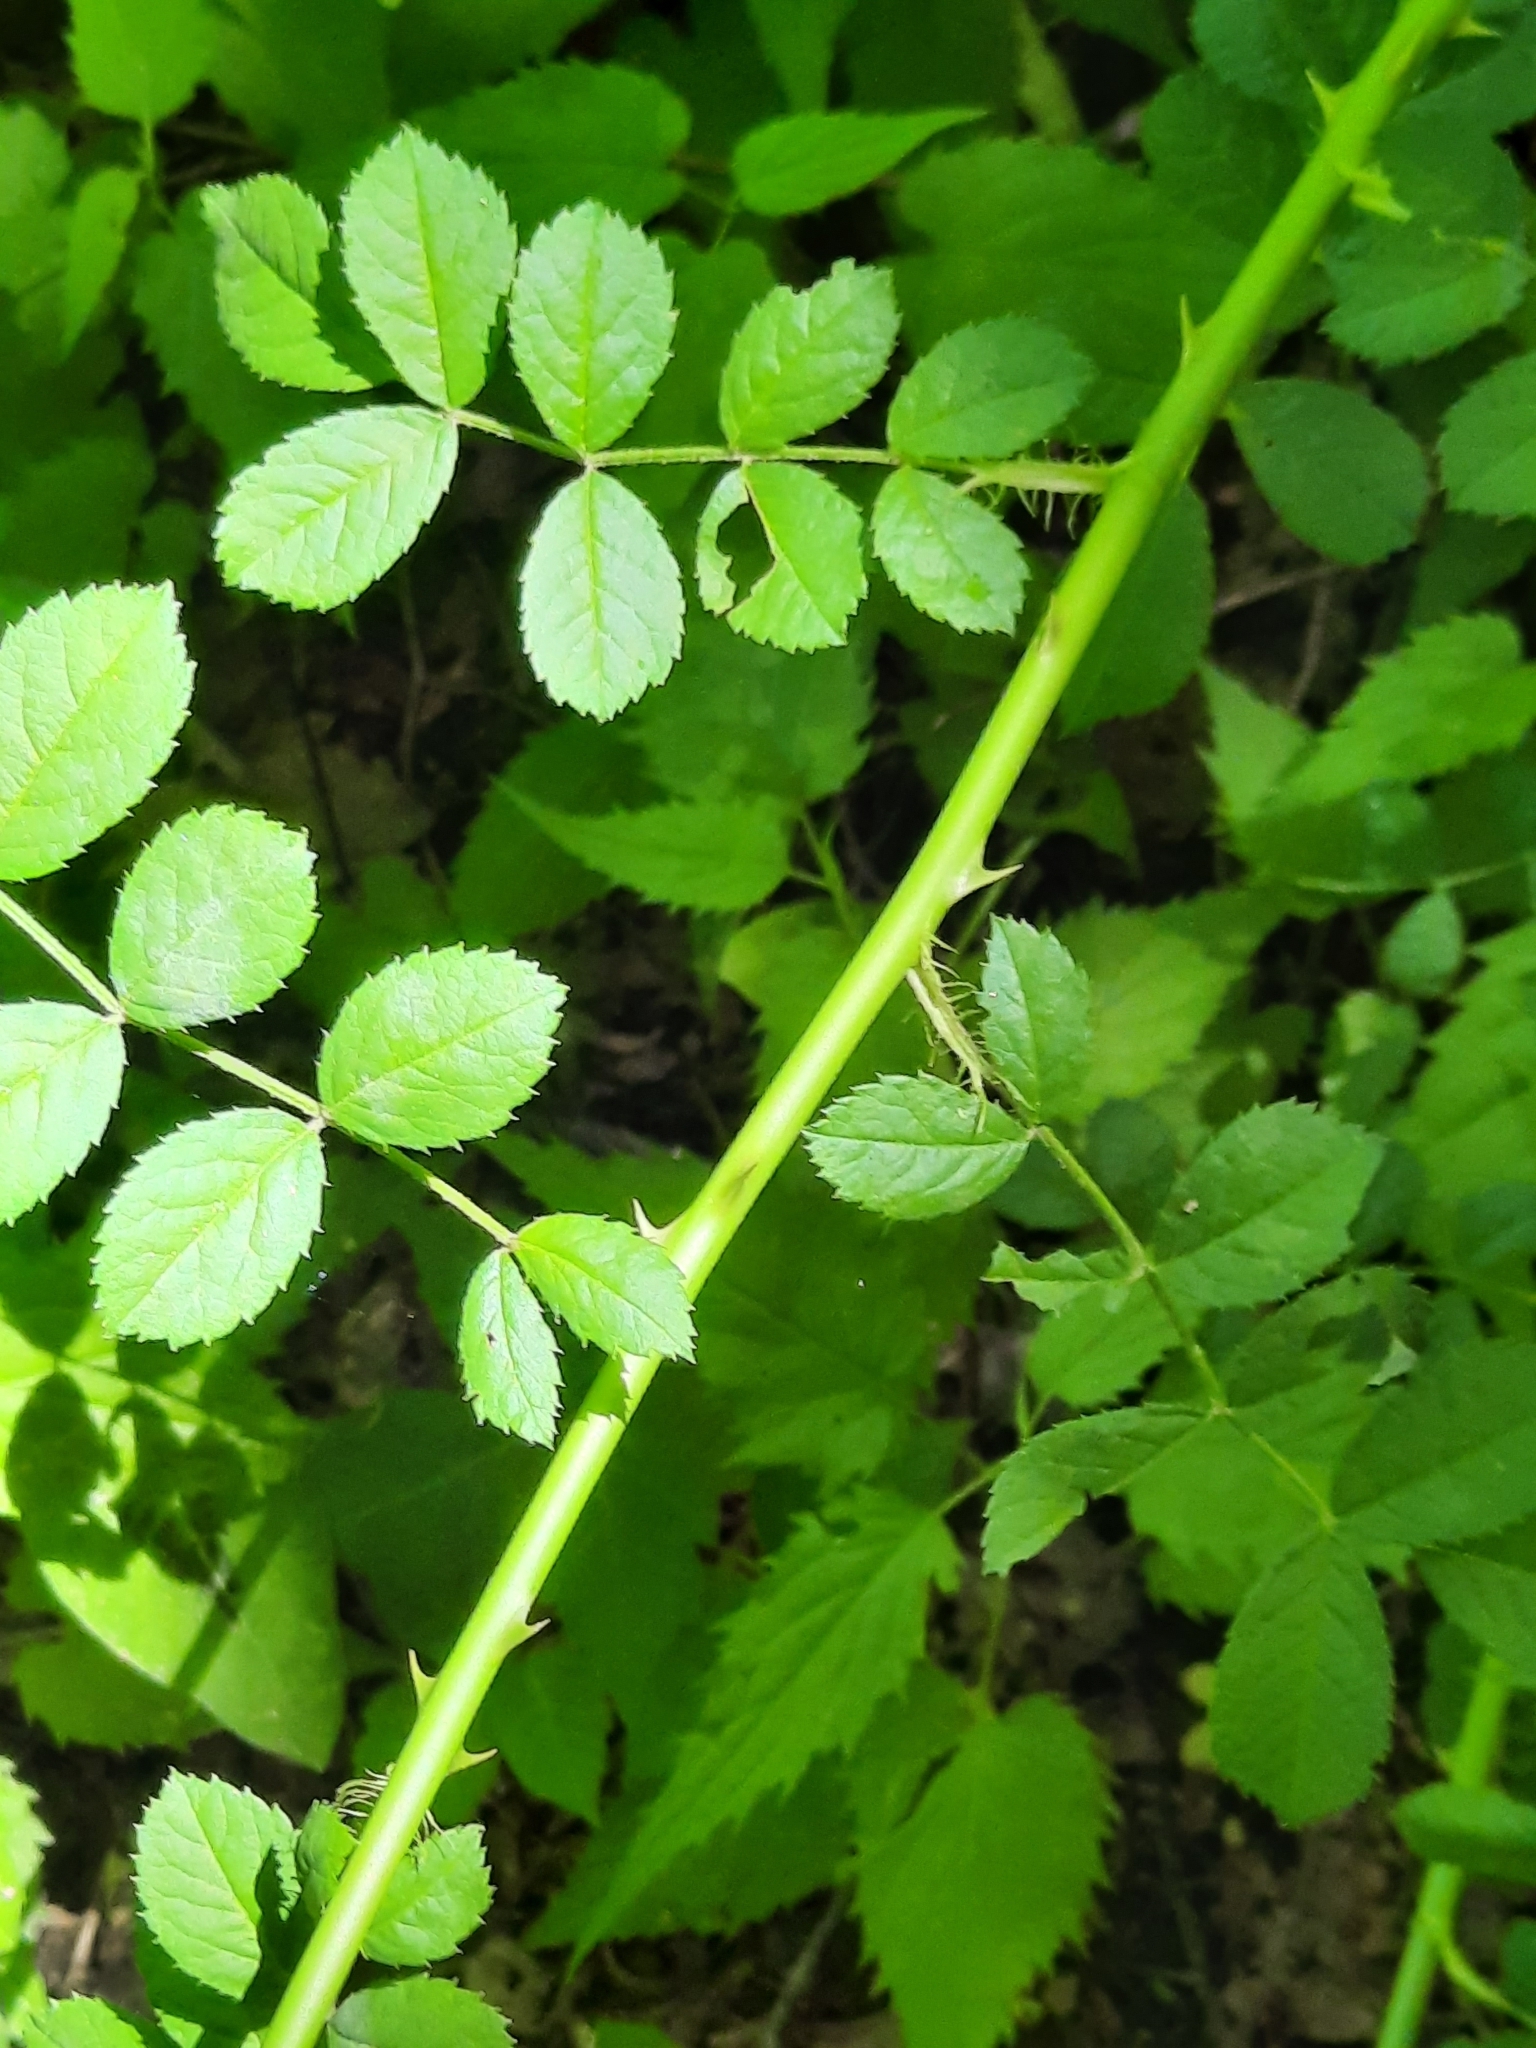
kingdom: Plantae
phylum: Tracheophyta
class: Magnoliopsida
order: Rosales
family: Rosaceae
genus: Rosa
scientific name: Rosa multiflora
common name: Multiflora rose
